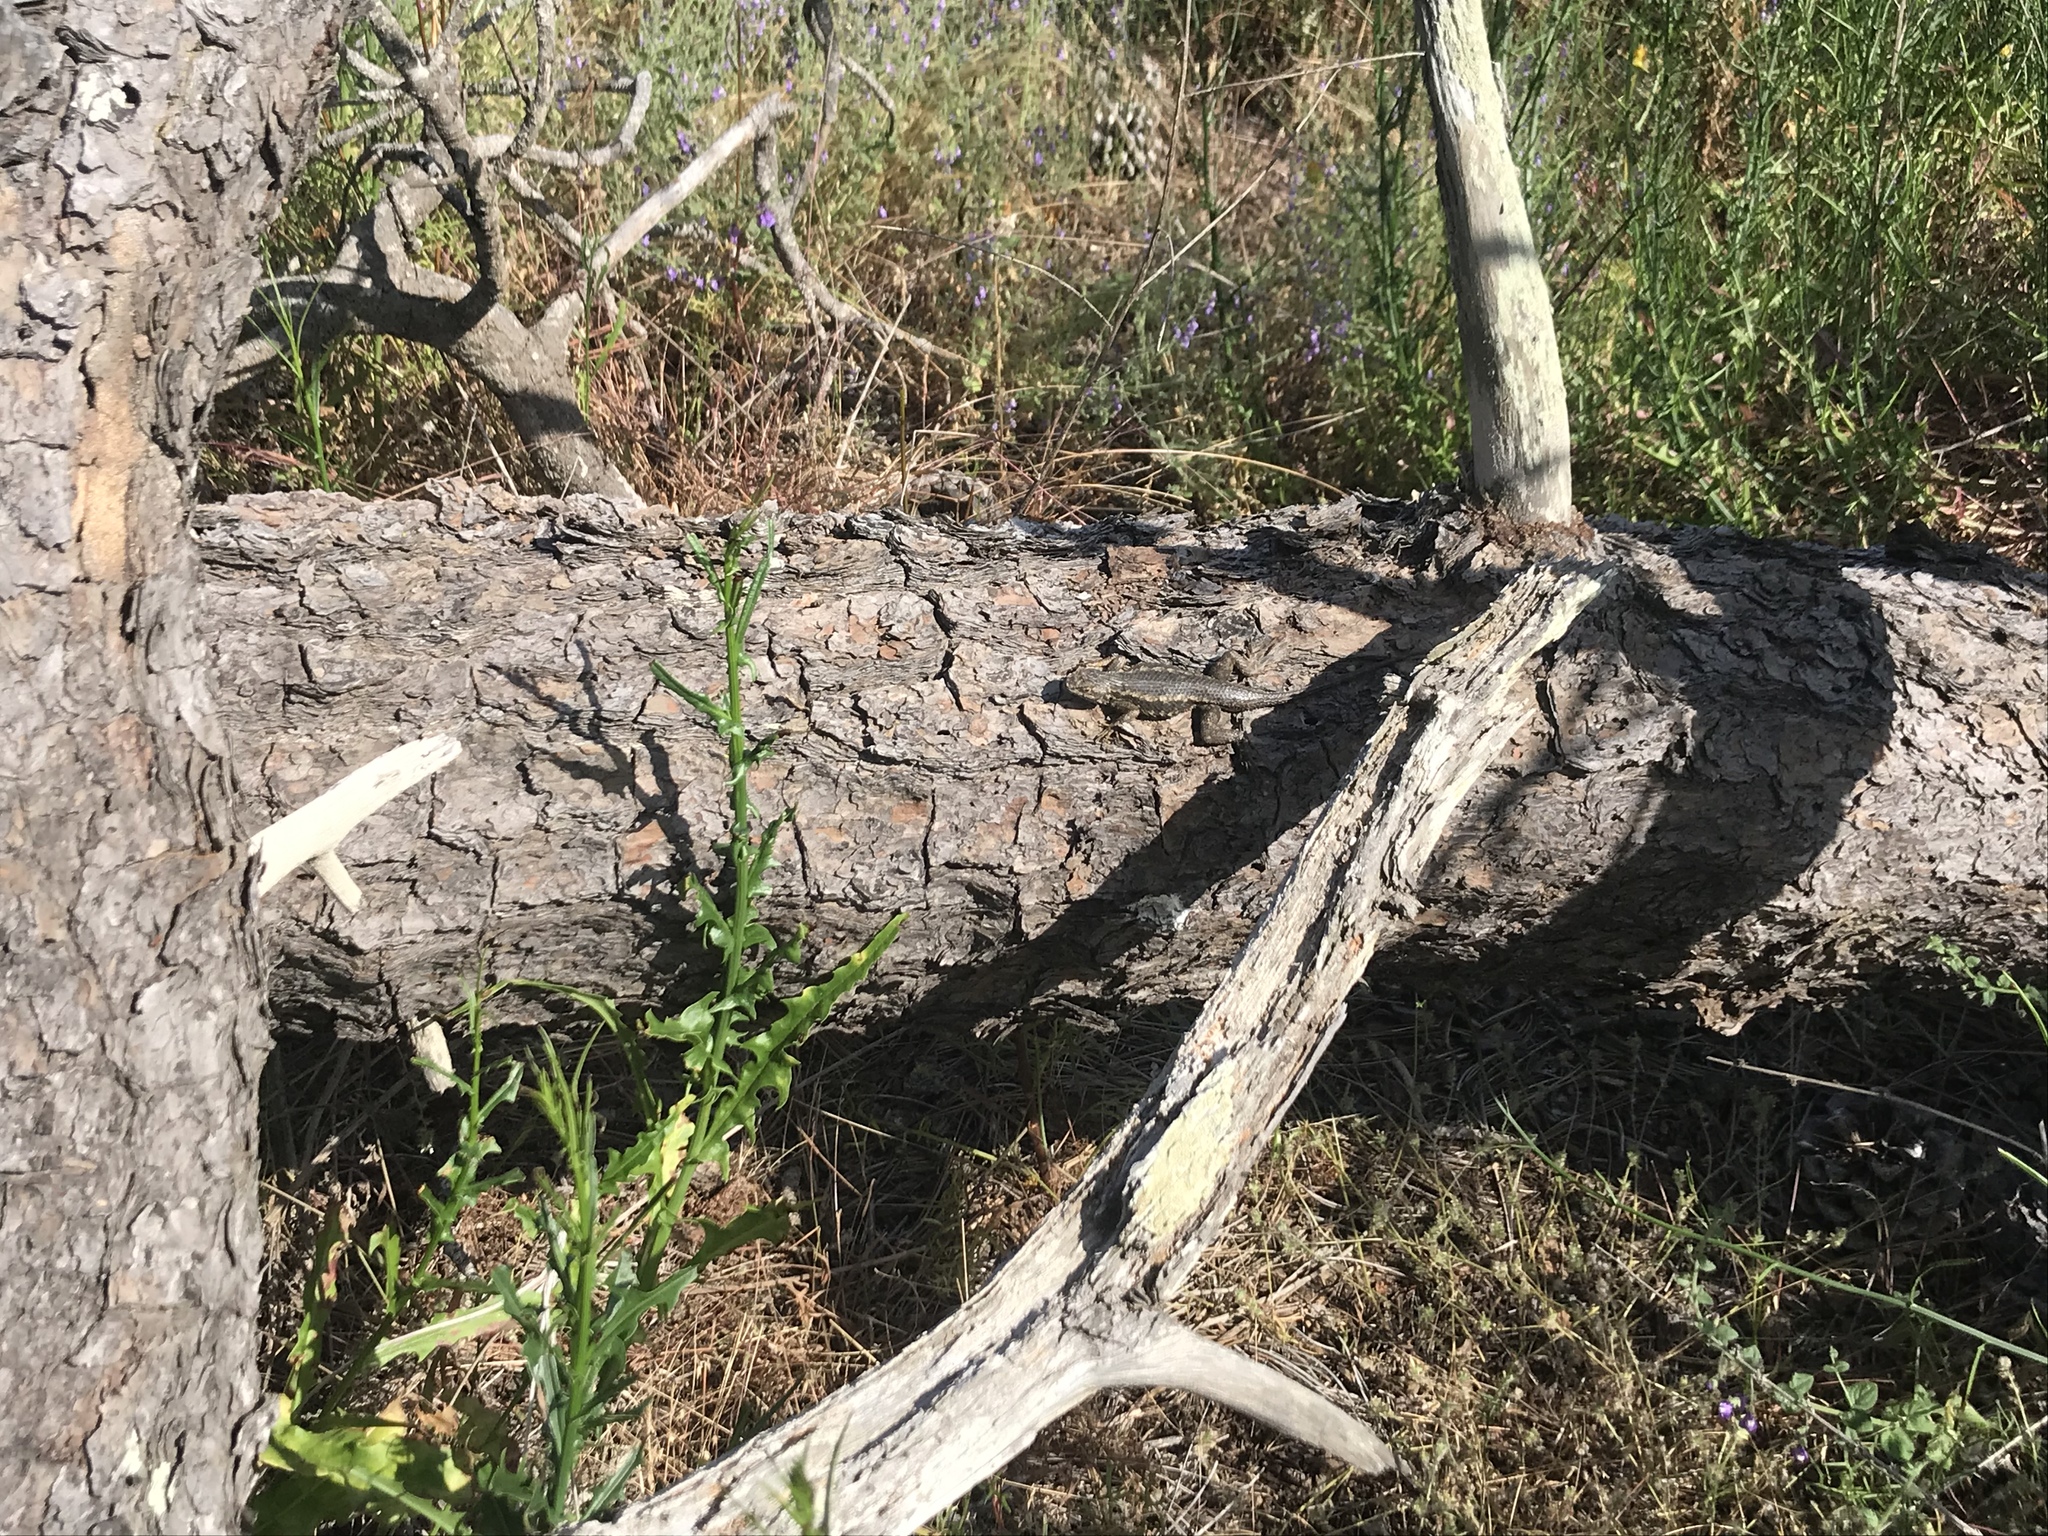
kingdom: Animalia
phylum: Chordata
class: Squamata
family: Phrynosomatidae
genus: Sceloporus
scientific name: Sceloporus occidentalis
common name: Western fence lizard
